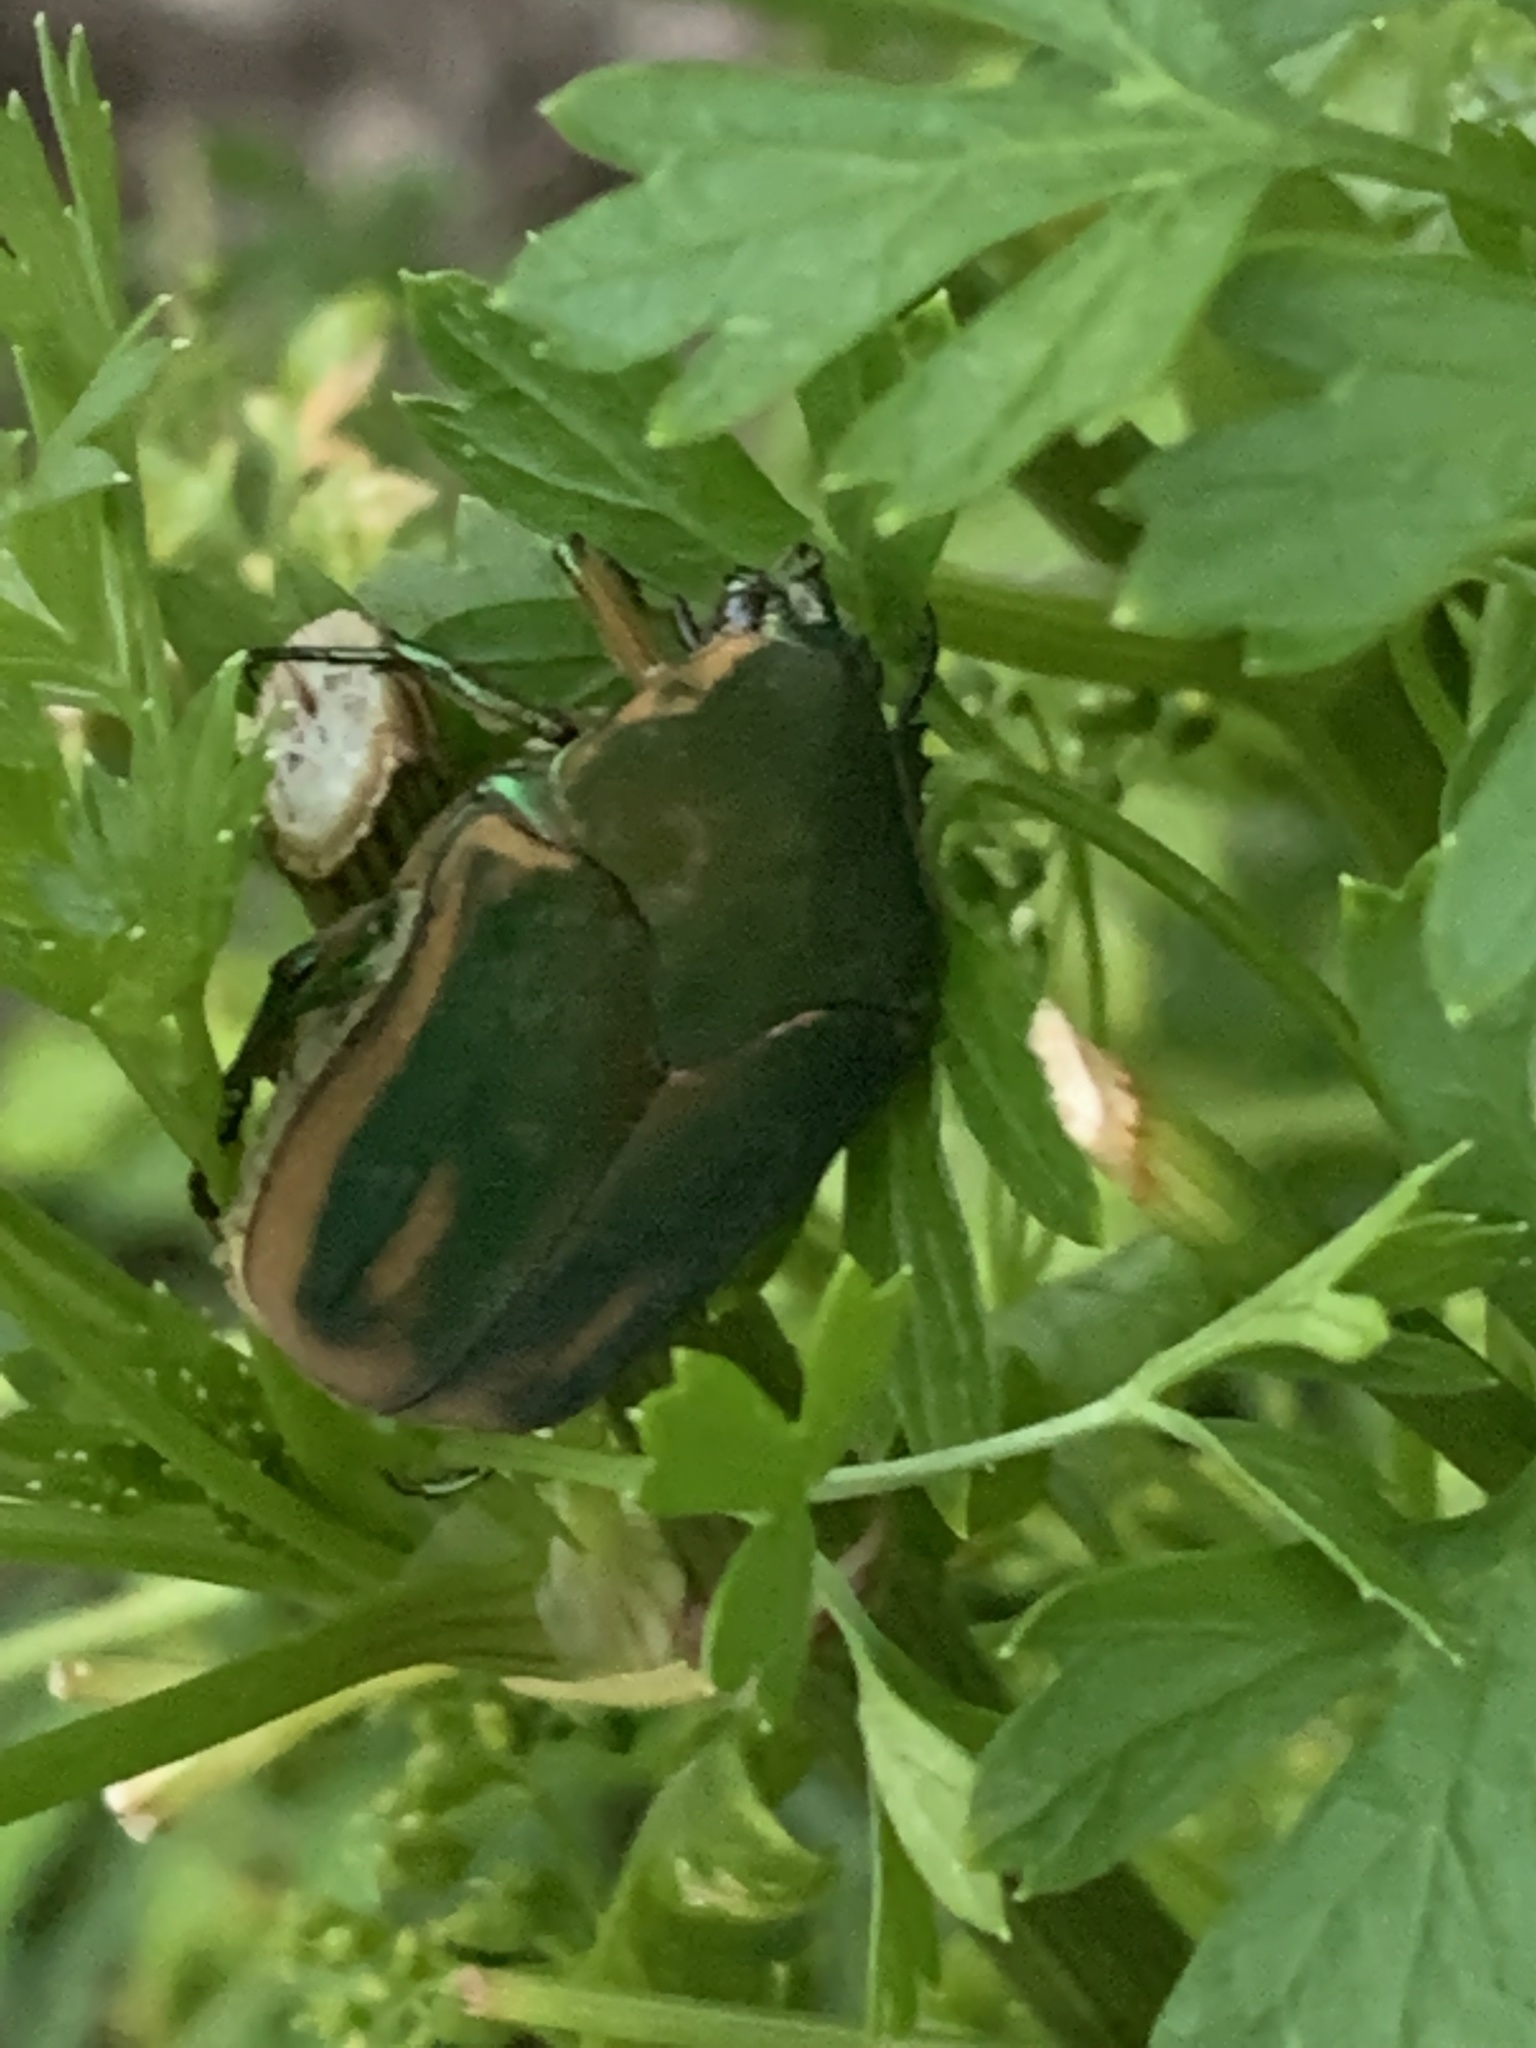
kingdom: Animalia
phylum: Arthropoda
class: Insecta
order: Coleoptera
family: Scarabaeidae
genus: Cotinis
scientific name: Cotinis nitida
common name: Common green june beetle
